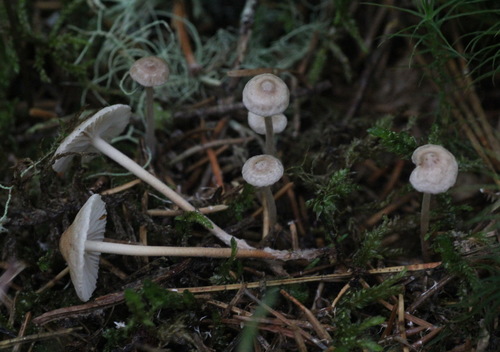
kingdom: Fungi
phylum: Basidiomycota
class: Agaricomycetes
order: Agaricales
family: Omphalotaceae
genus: Paragymnopus
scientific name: Paragymnopus perforans
